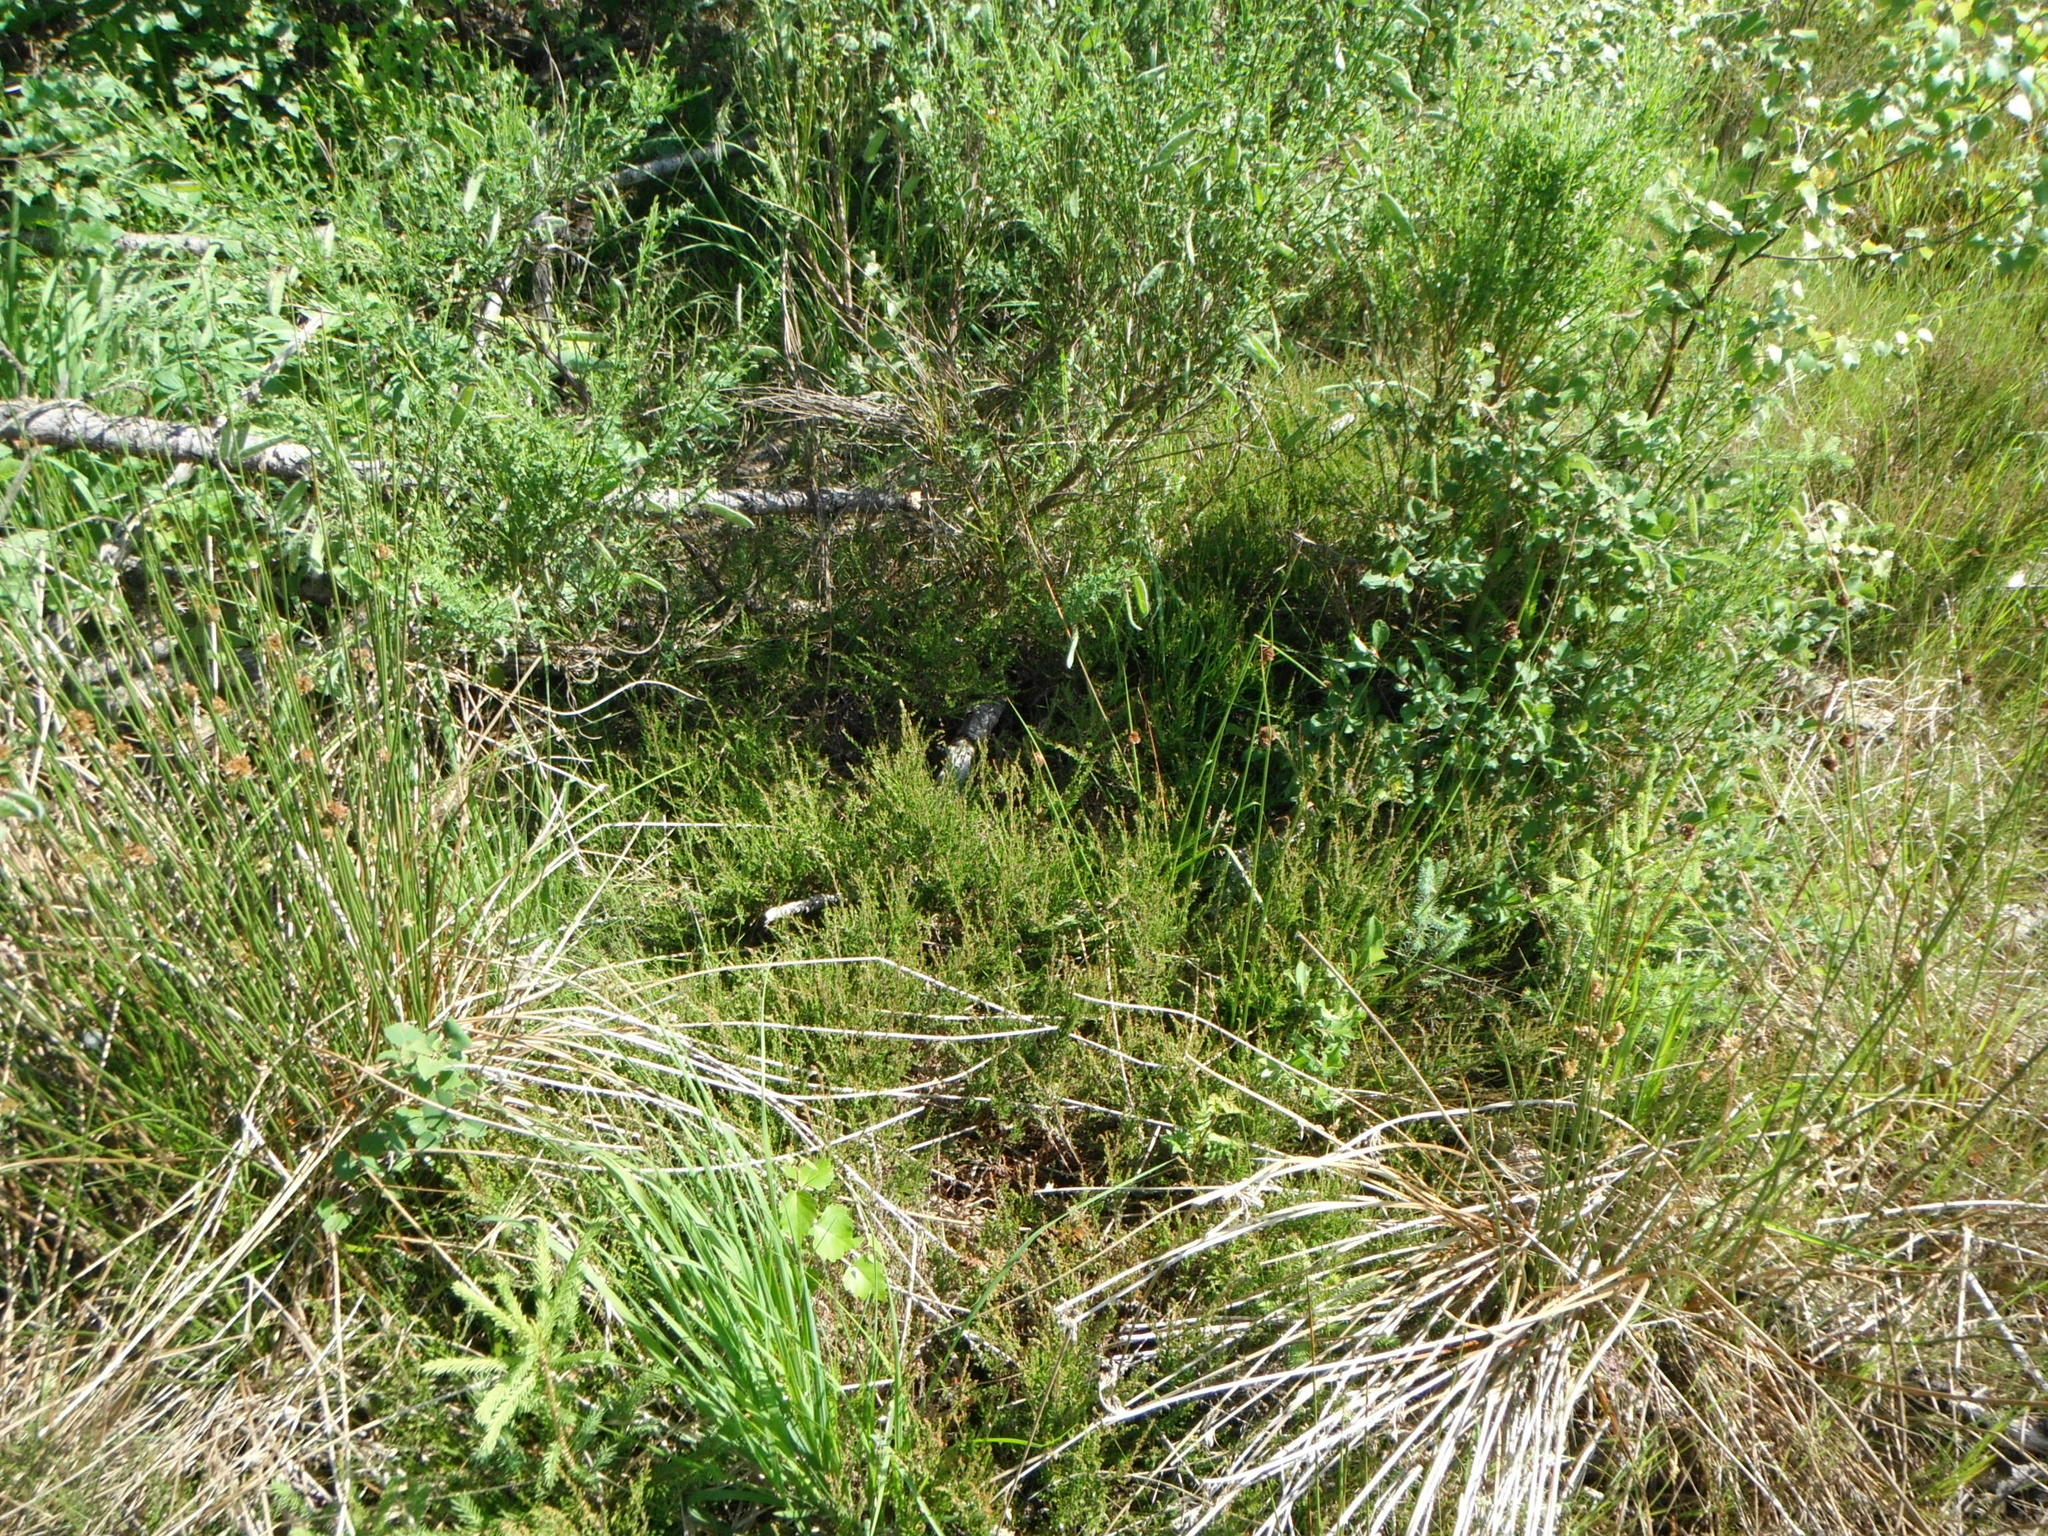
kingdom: Plantae
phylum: Tracheophyta
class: Magnoliopsida
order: Ericales
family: Ericaceae
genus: Calluna
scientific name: Calluna vulgaris
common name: Heather
